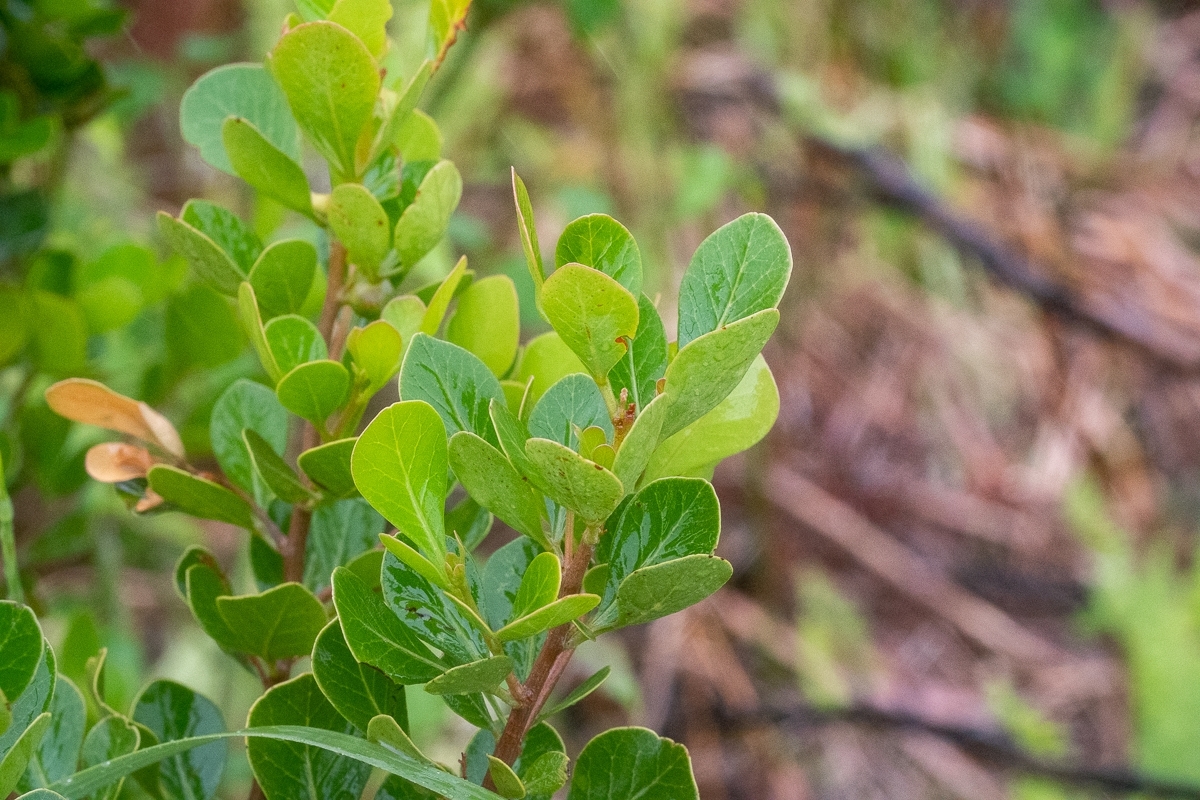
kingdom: Plantae
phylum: Tracheophyta
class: Magnoliopsida
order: Sapindales
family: Anacardiaceae
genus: Searsia
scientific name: Searsia lucida
